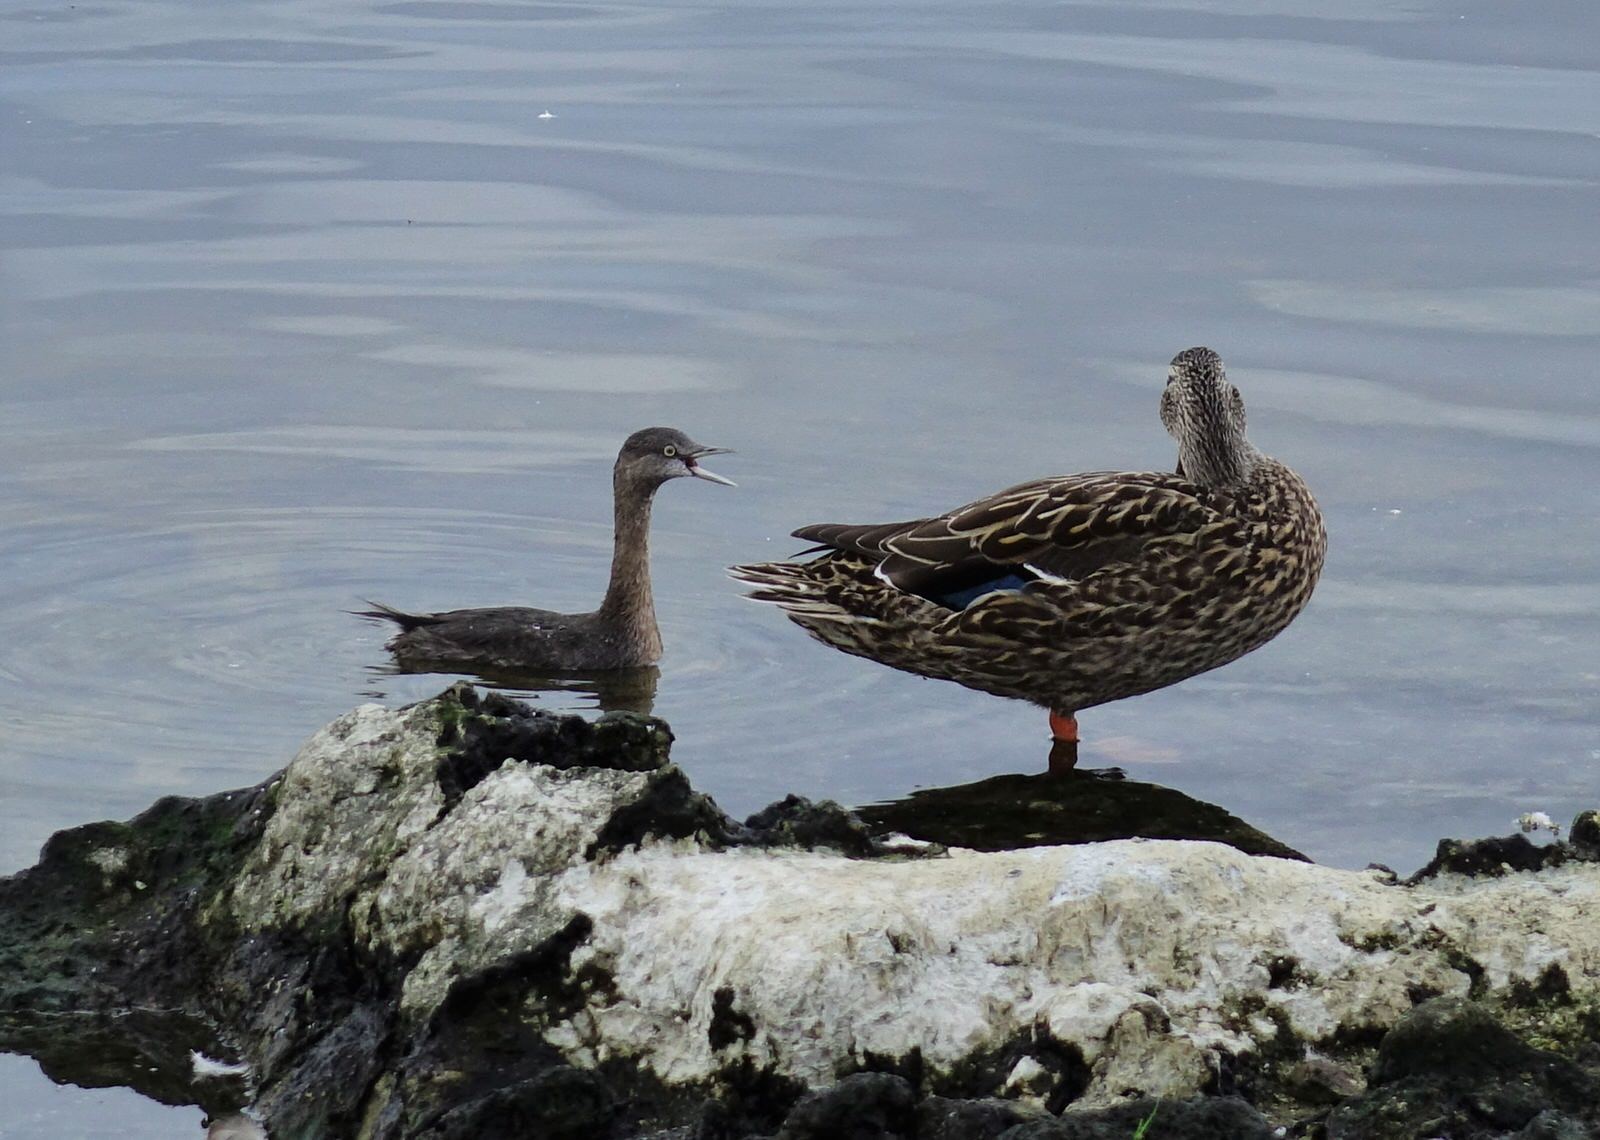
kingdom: Animalia
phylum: Chordata
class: Aves
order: Podicipediformes
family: Podicipedidae
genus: Poliocephalus
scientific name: Poliocephalus rufopectus
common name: New zealand grebe
